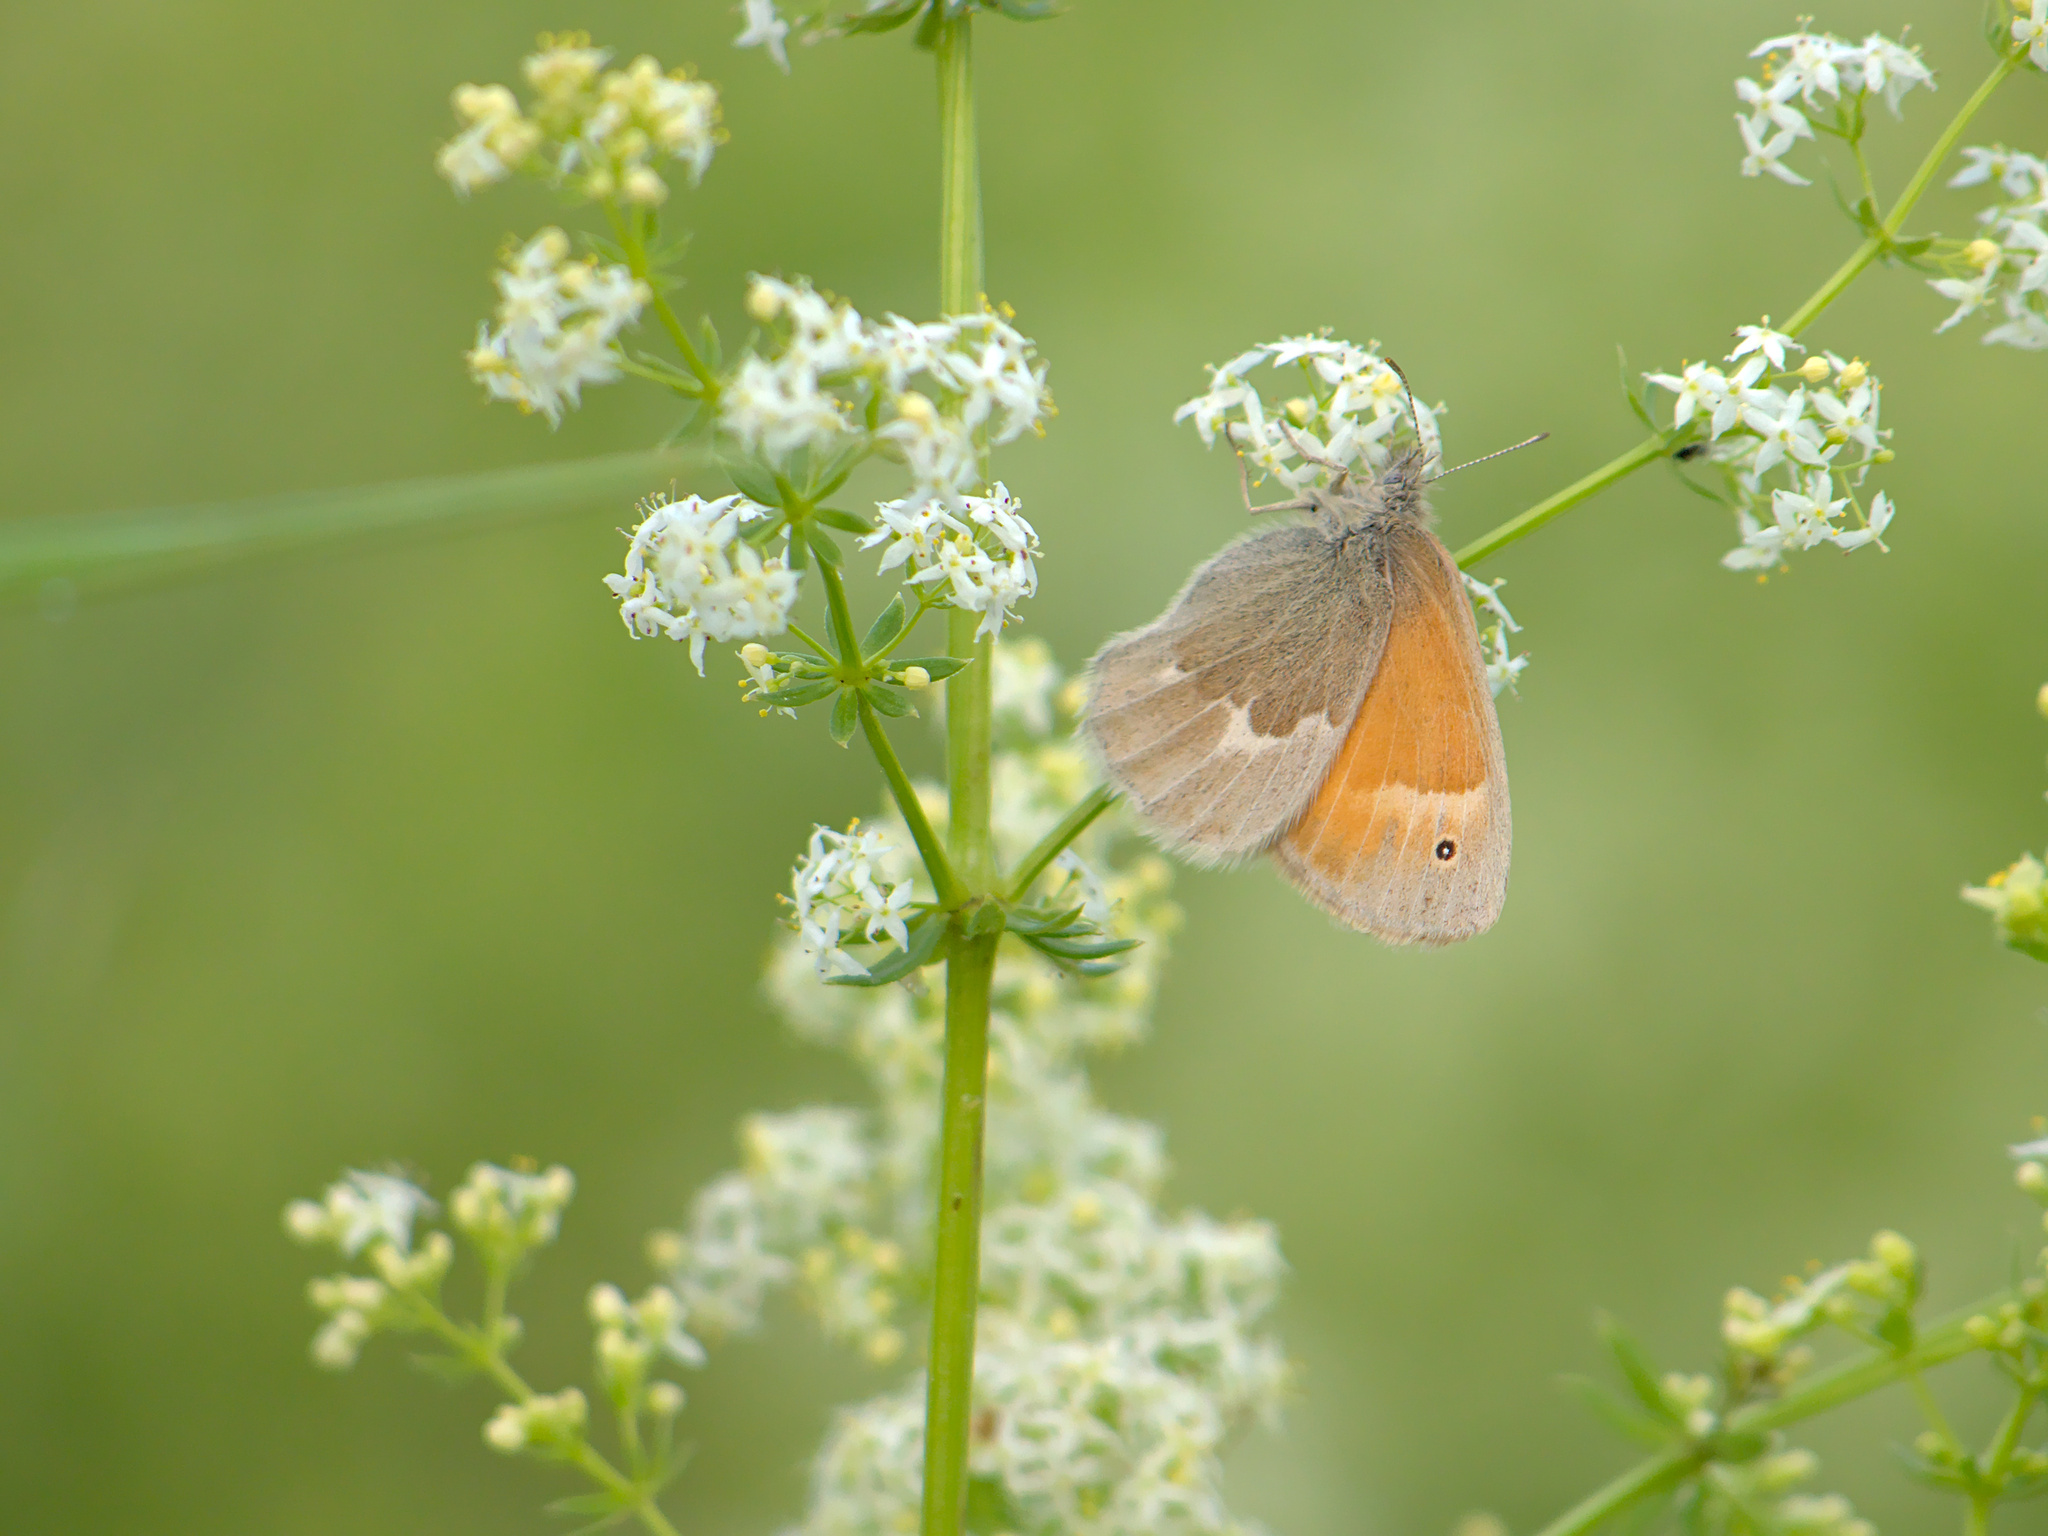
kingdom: Animalia
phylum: Arthropoda
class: Insecta
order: Lepidoptera
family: Nymphalidae
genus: Coenonympha
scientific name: Coenonympha california
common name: Common ringlet
